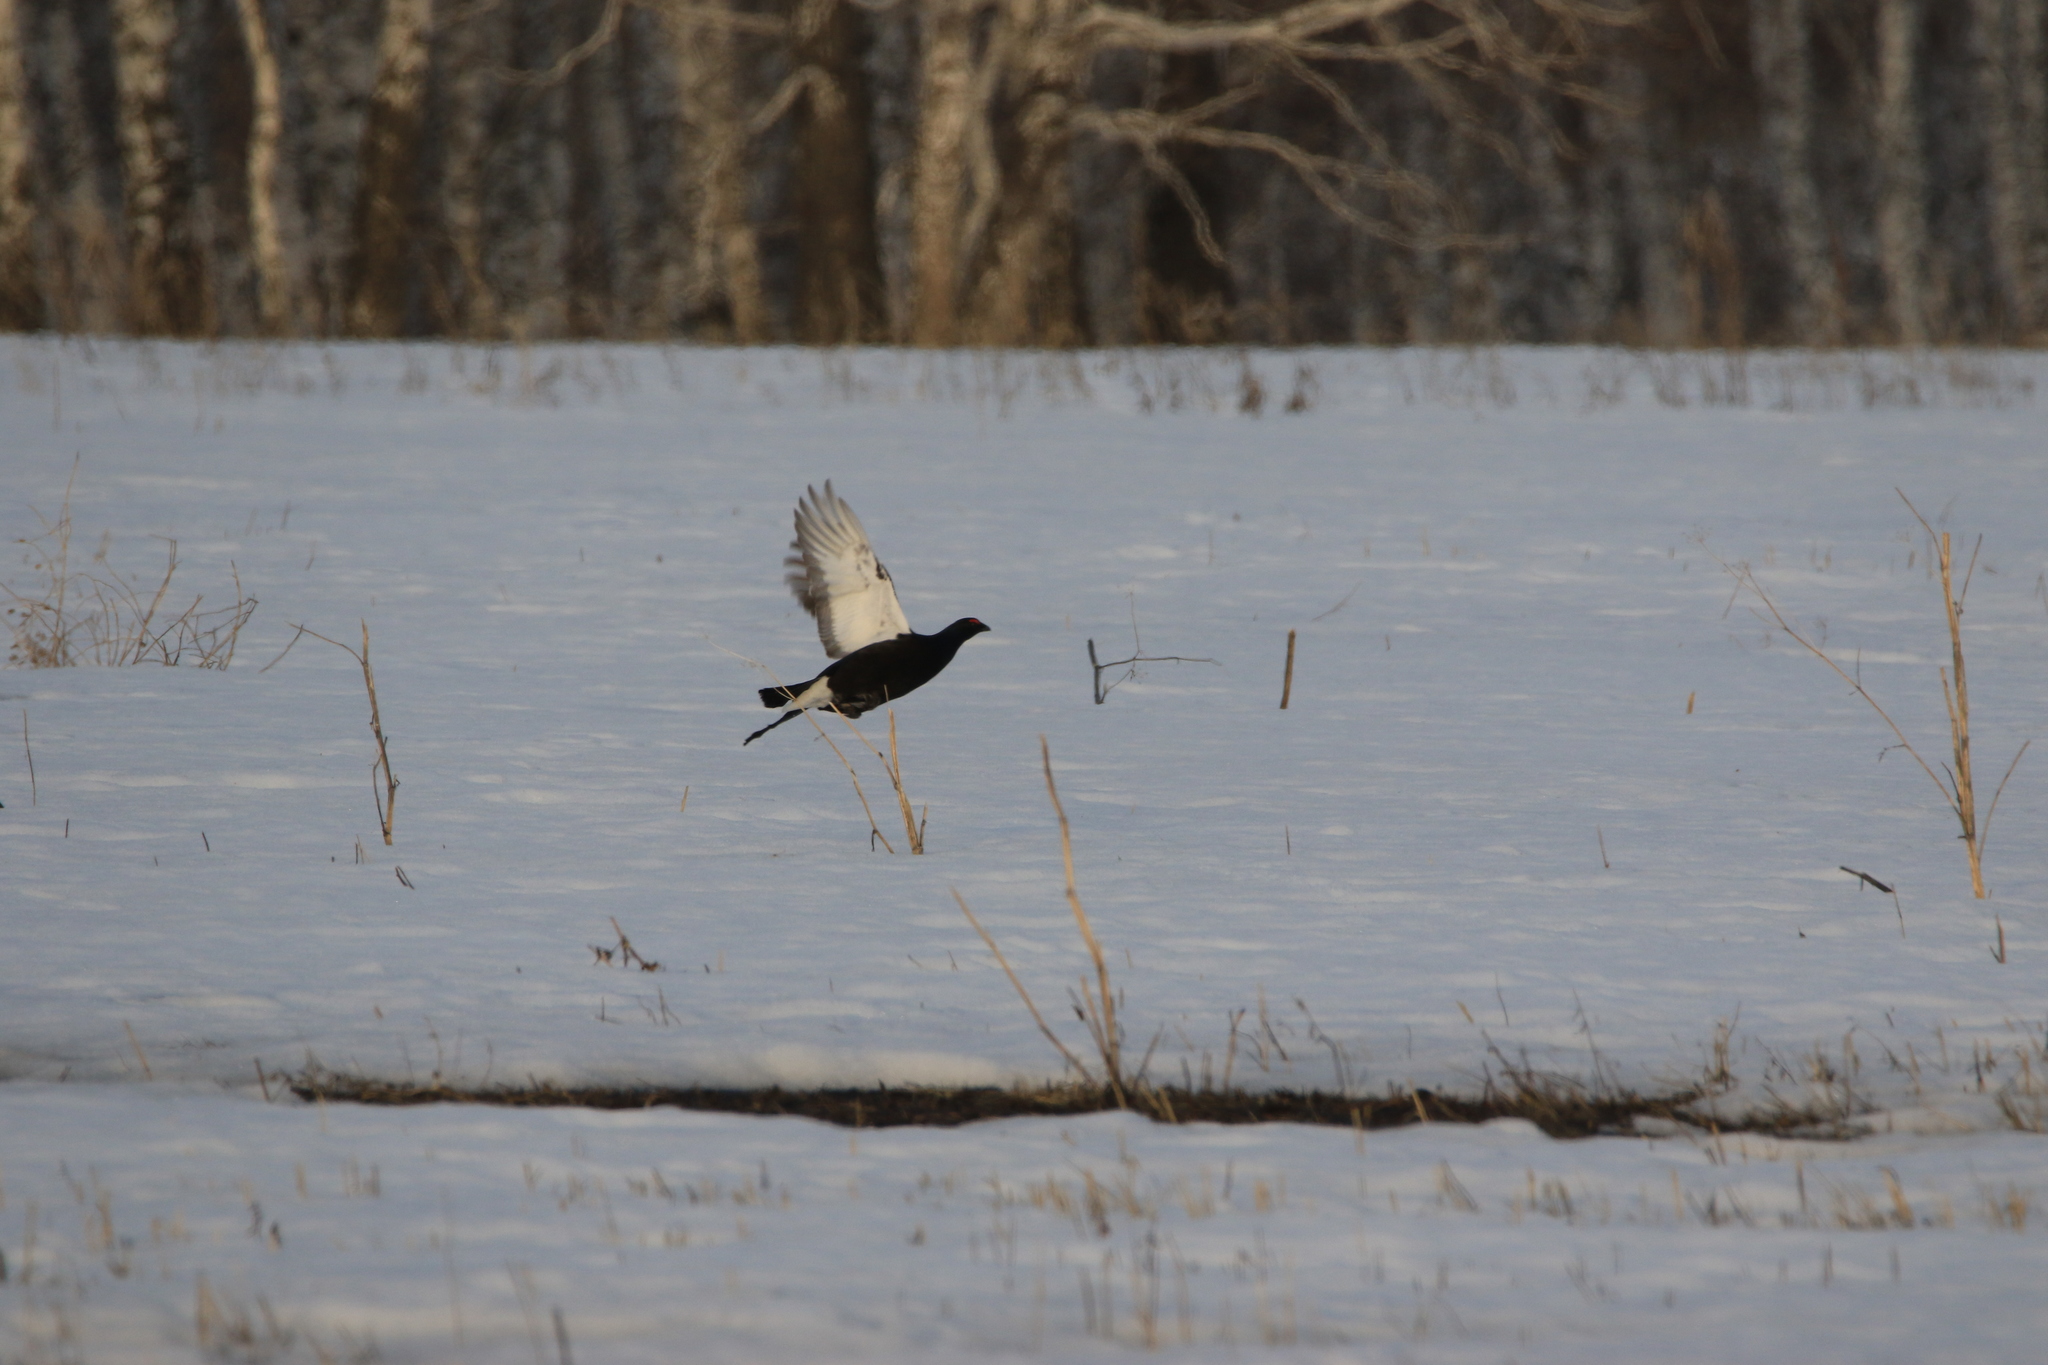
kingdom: Animalia
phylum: Chordata
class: Aves
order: Galliformes
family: Phasianidae
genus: Lyrurus
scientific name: Lyrurus tetrix
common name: Black grouse
